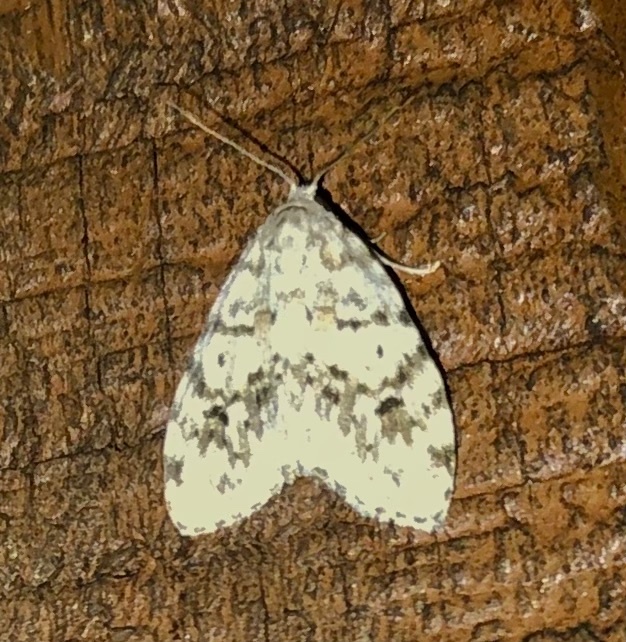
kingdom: Animalia
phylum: Arthropoda
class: Insecta
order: Lepidoptera
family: Erebidae
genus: Clemensia
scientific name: Clemensia albata
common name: Little white lichen moth
